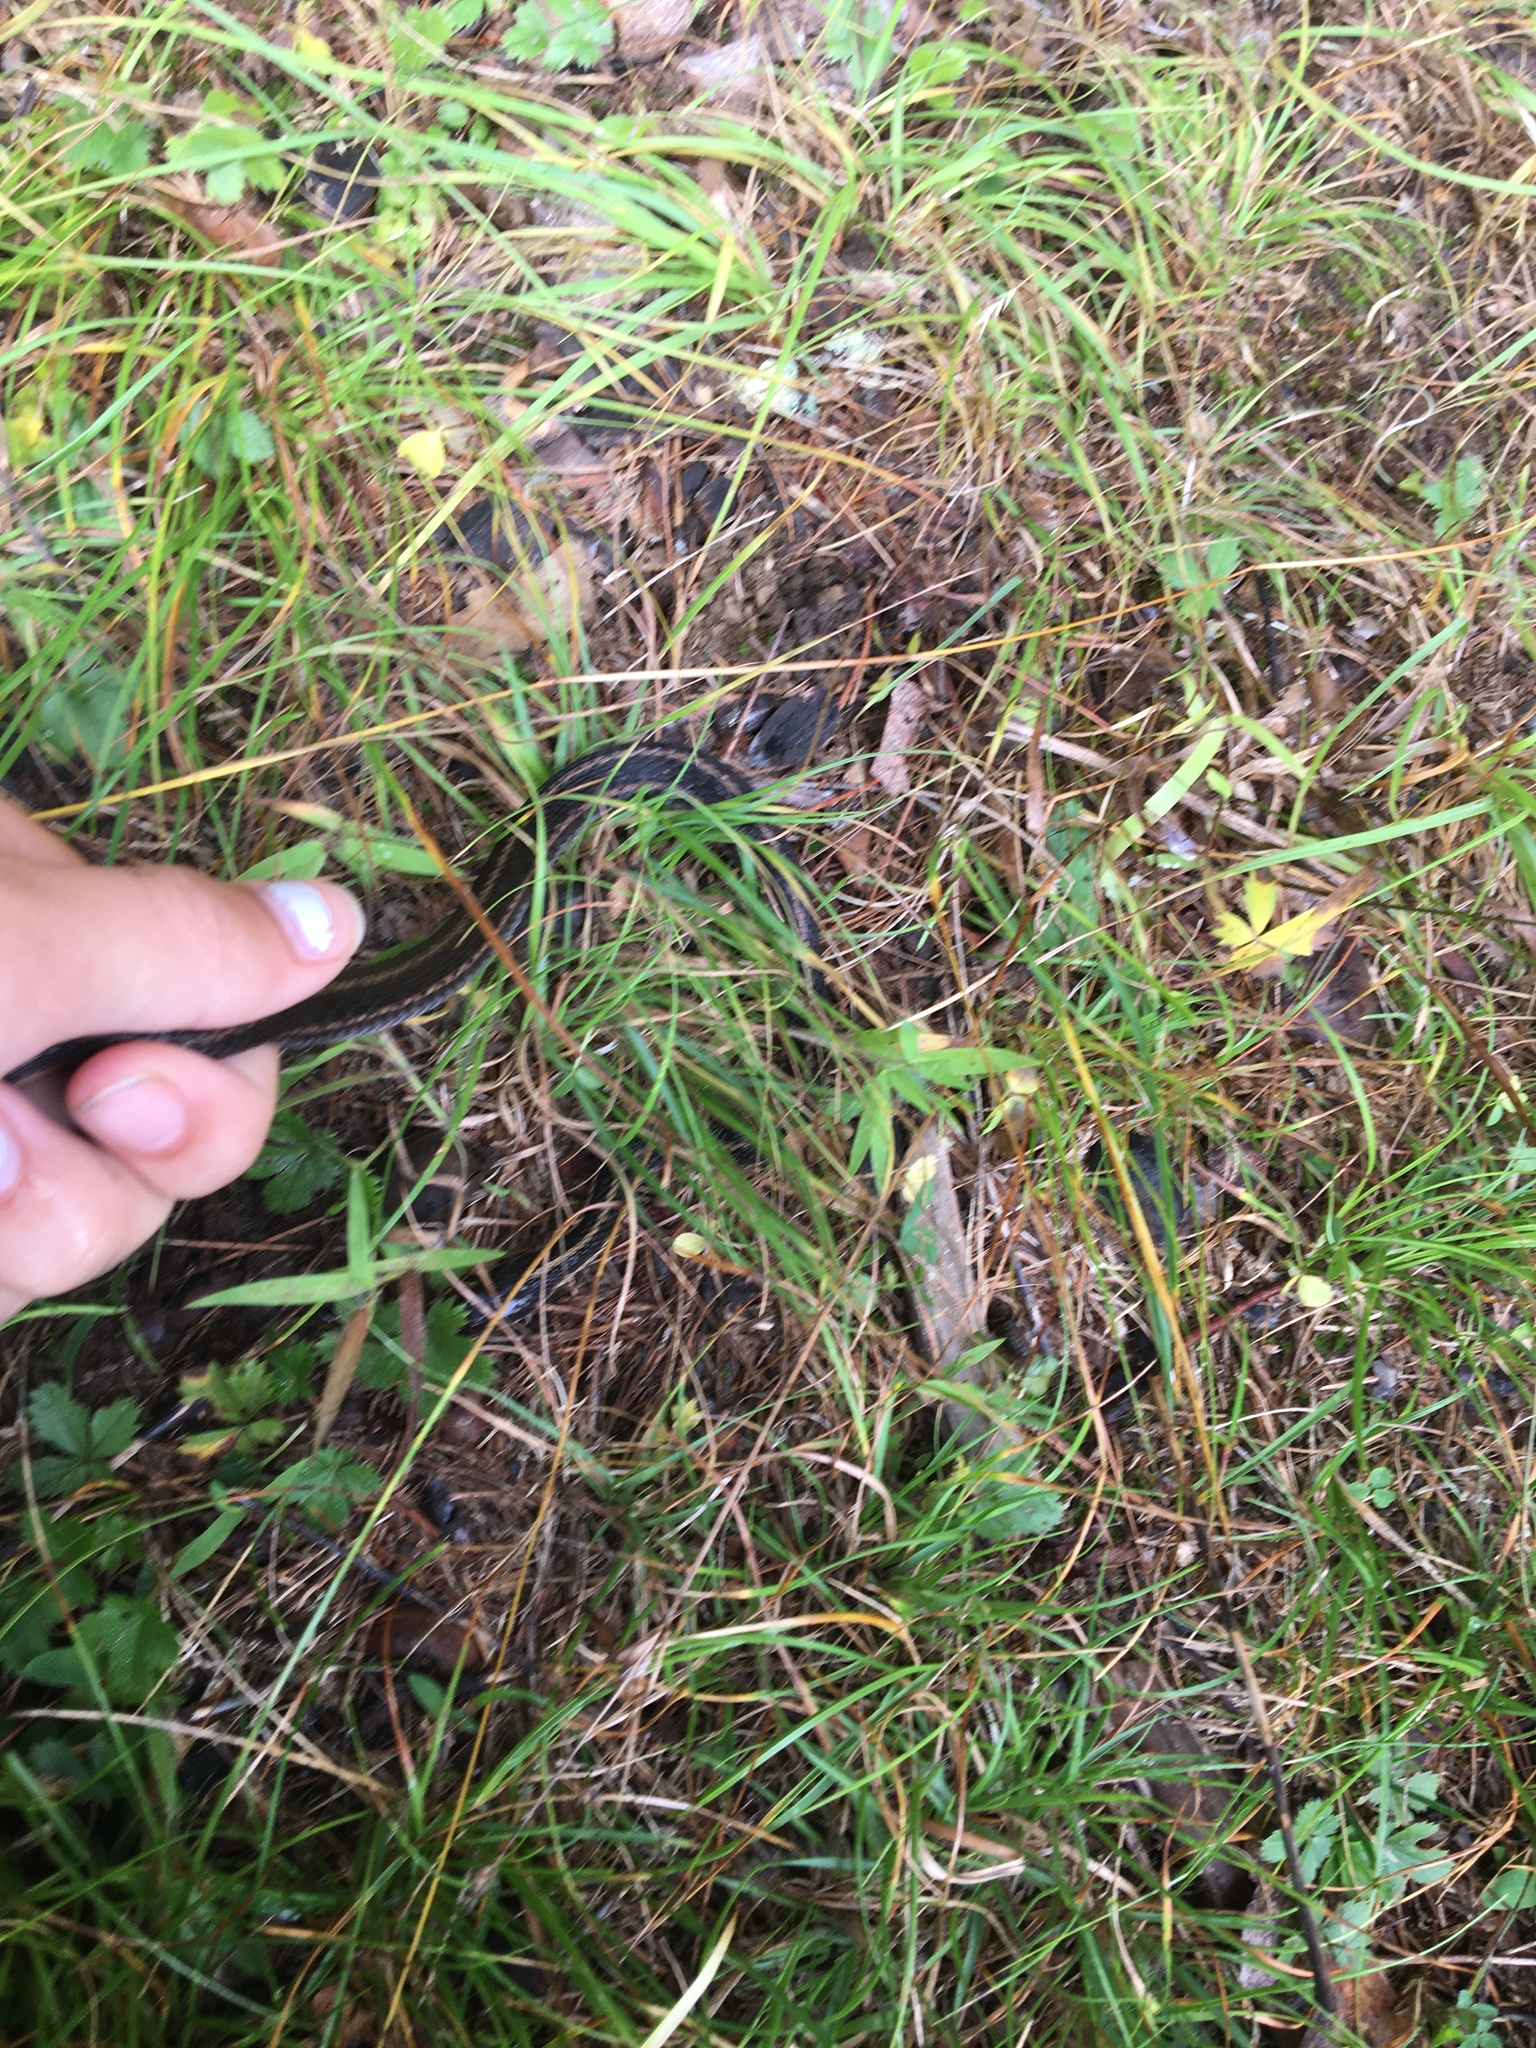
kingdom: Animalia
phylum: Chordata
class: Squamata
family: Colubridae
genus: Thamnophis
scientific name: Thamnophis sirtalis
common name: Common garter snake
